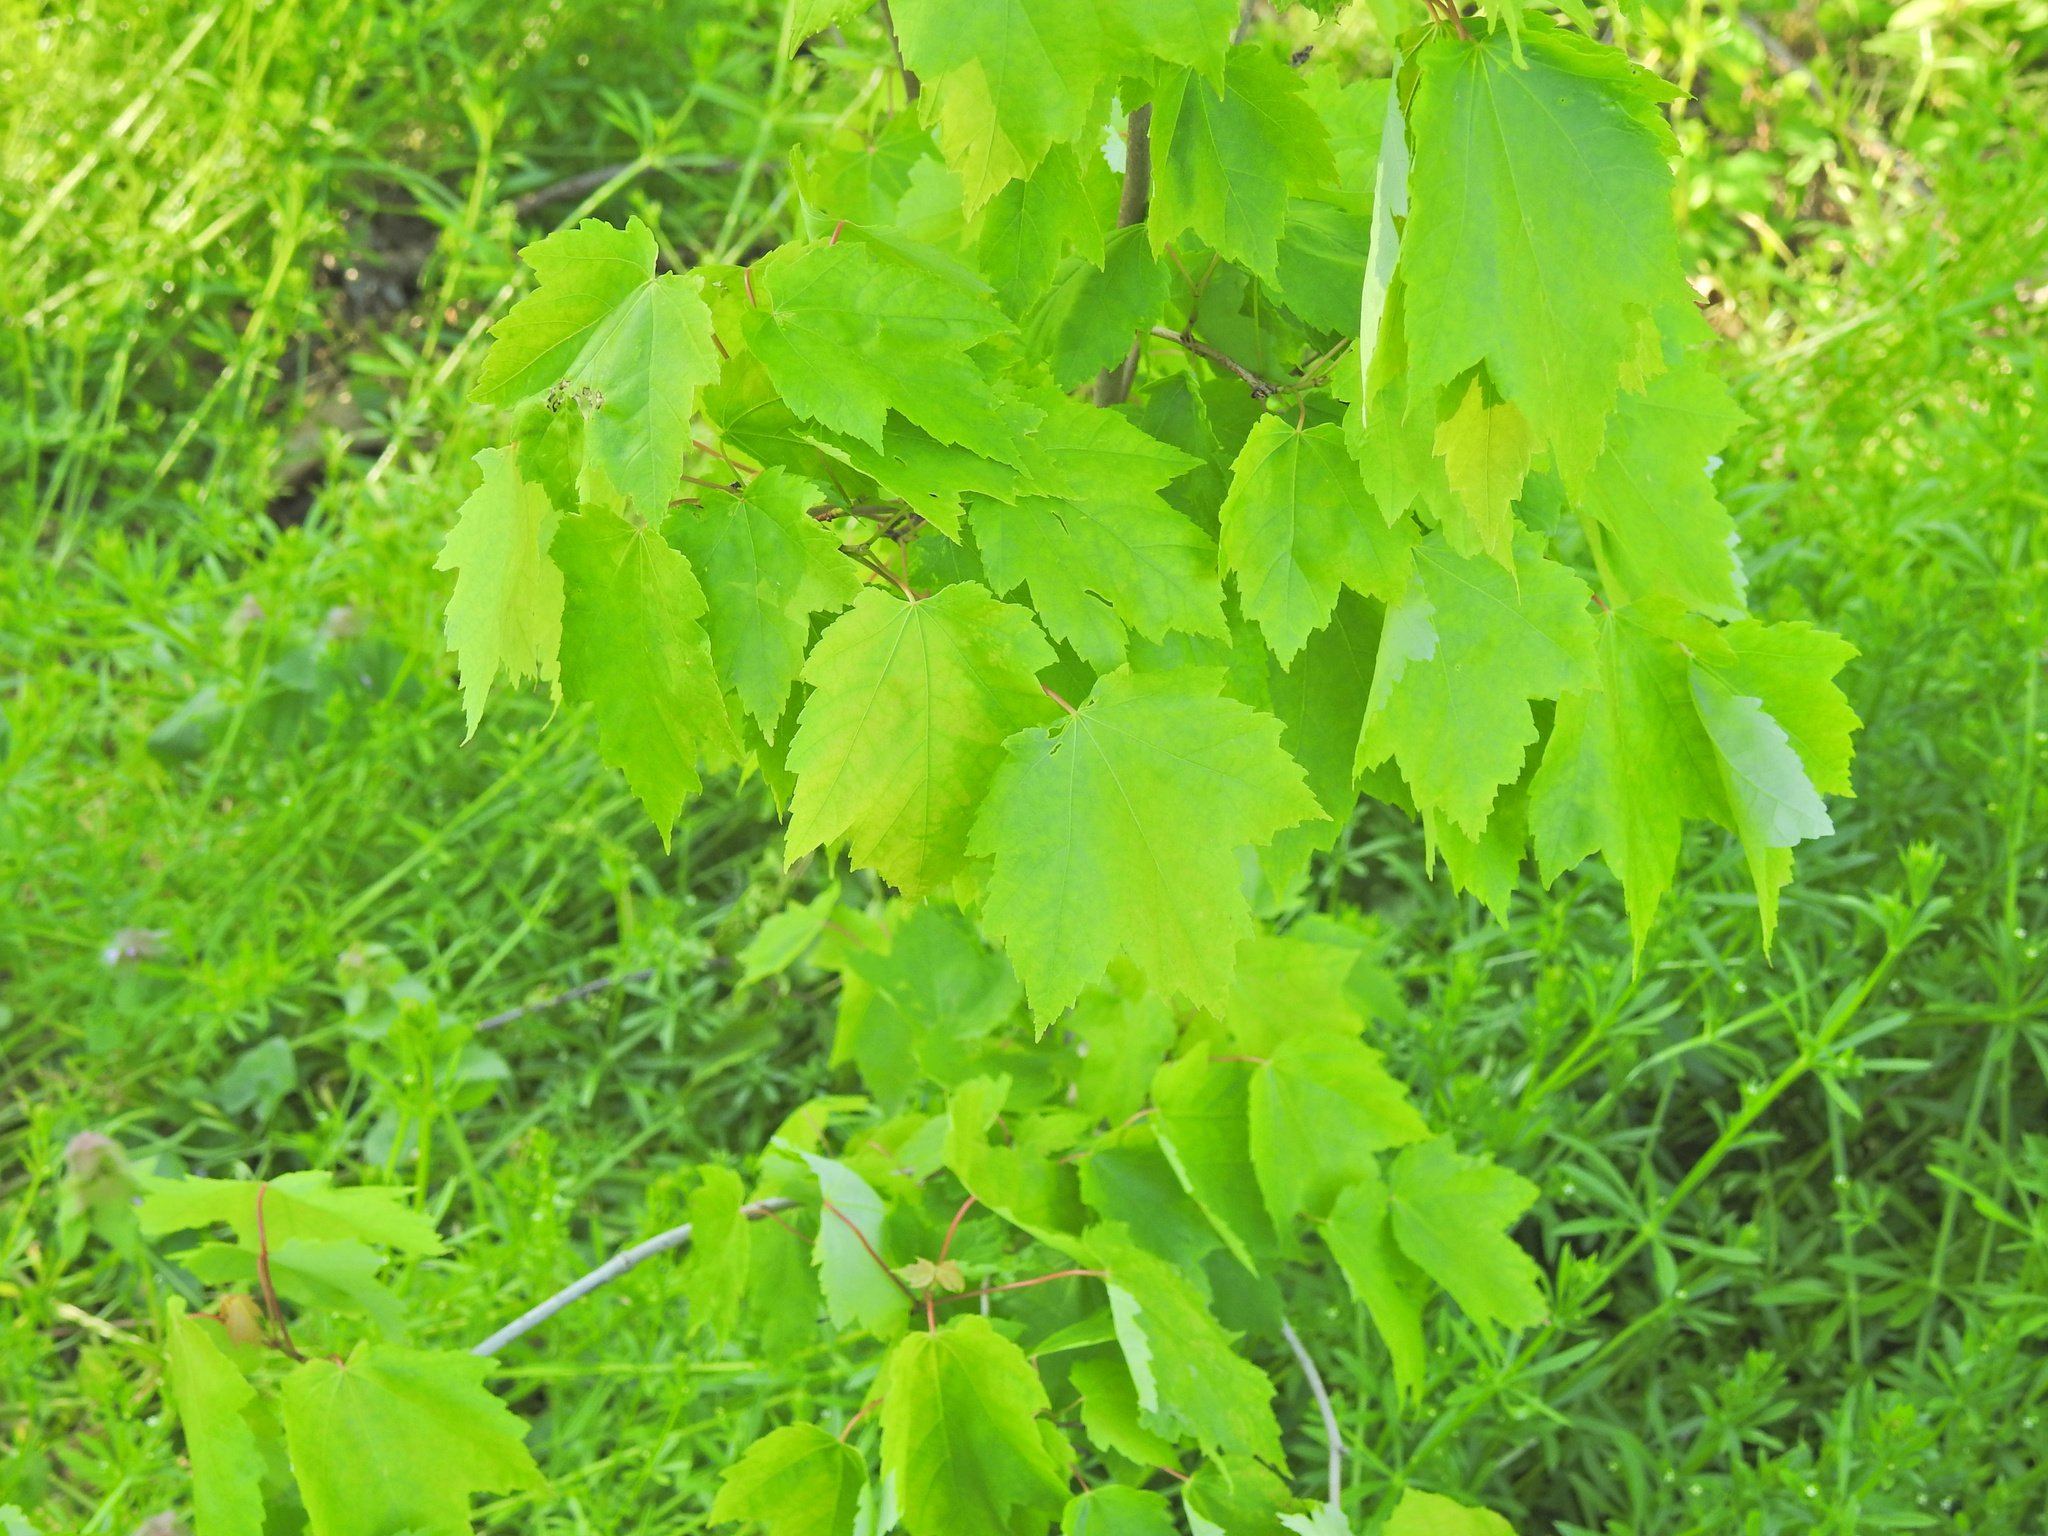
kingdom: Plantae
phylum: Tracheophyta
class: Magnoliopsida
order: Sapindales
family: Sapindaceae
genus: Acer
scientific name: Acer rubrum
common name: Red maple
